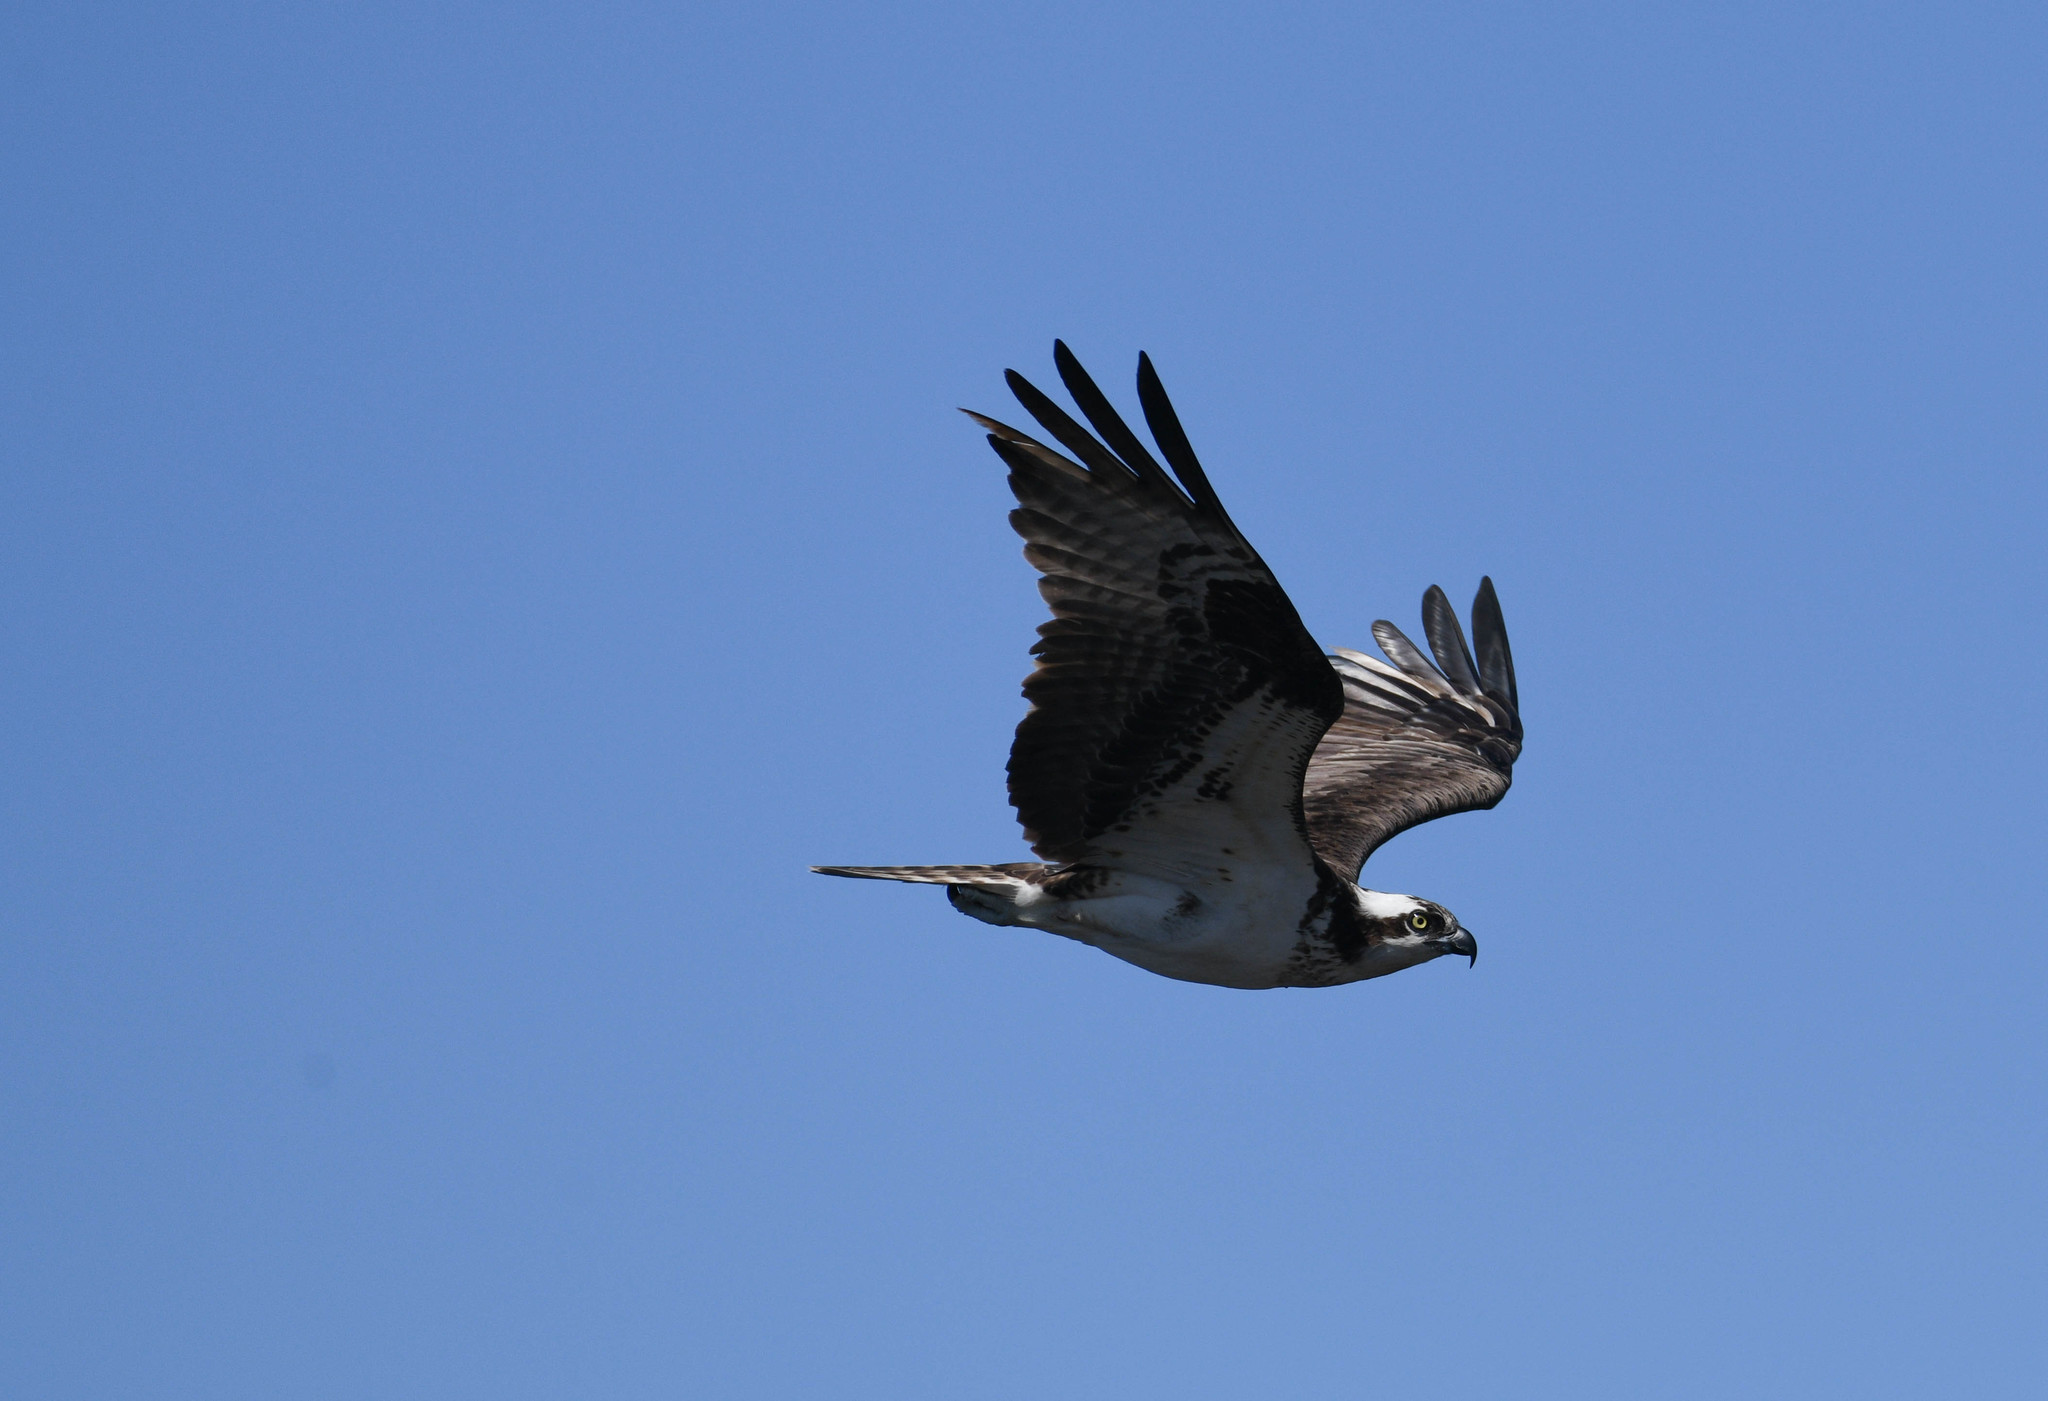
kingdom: Animalia
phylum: Chordata
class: Aves
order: Accipitriformes
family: Pandionidae
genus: Pandion
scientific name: Pandion haliaetus
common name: Osprey
